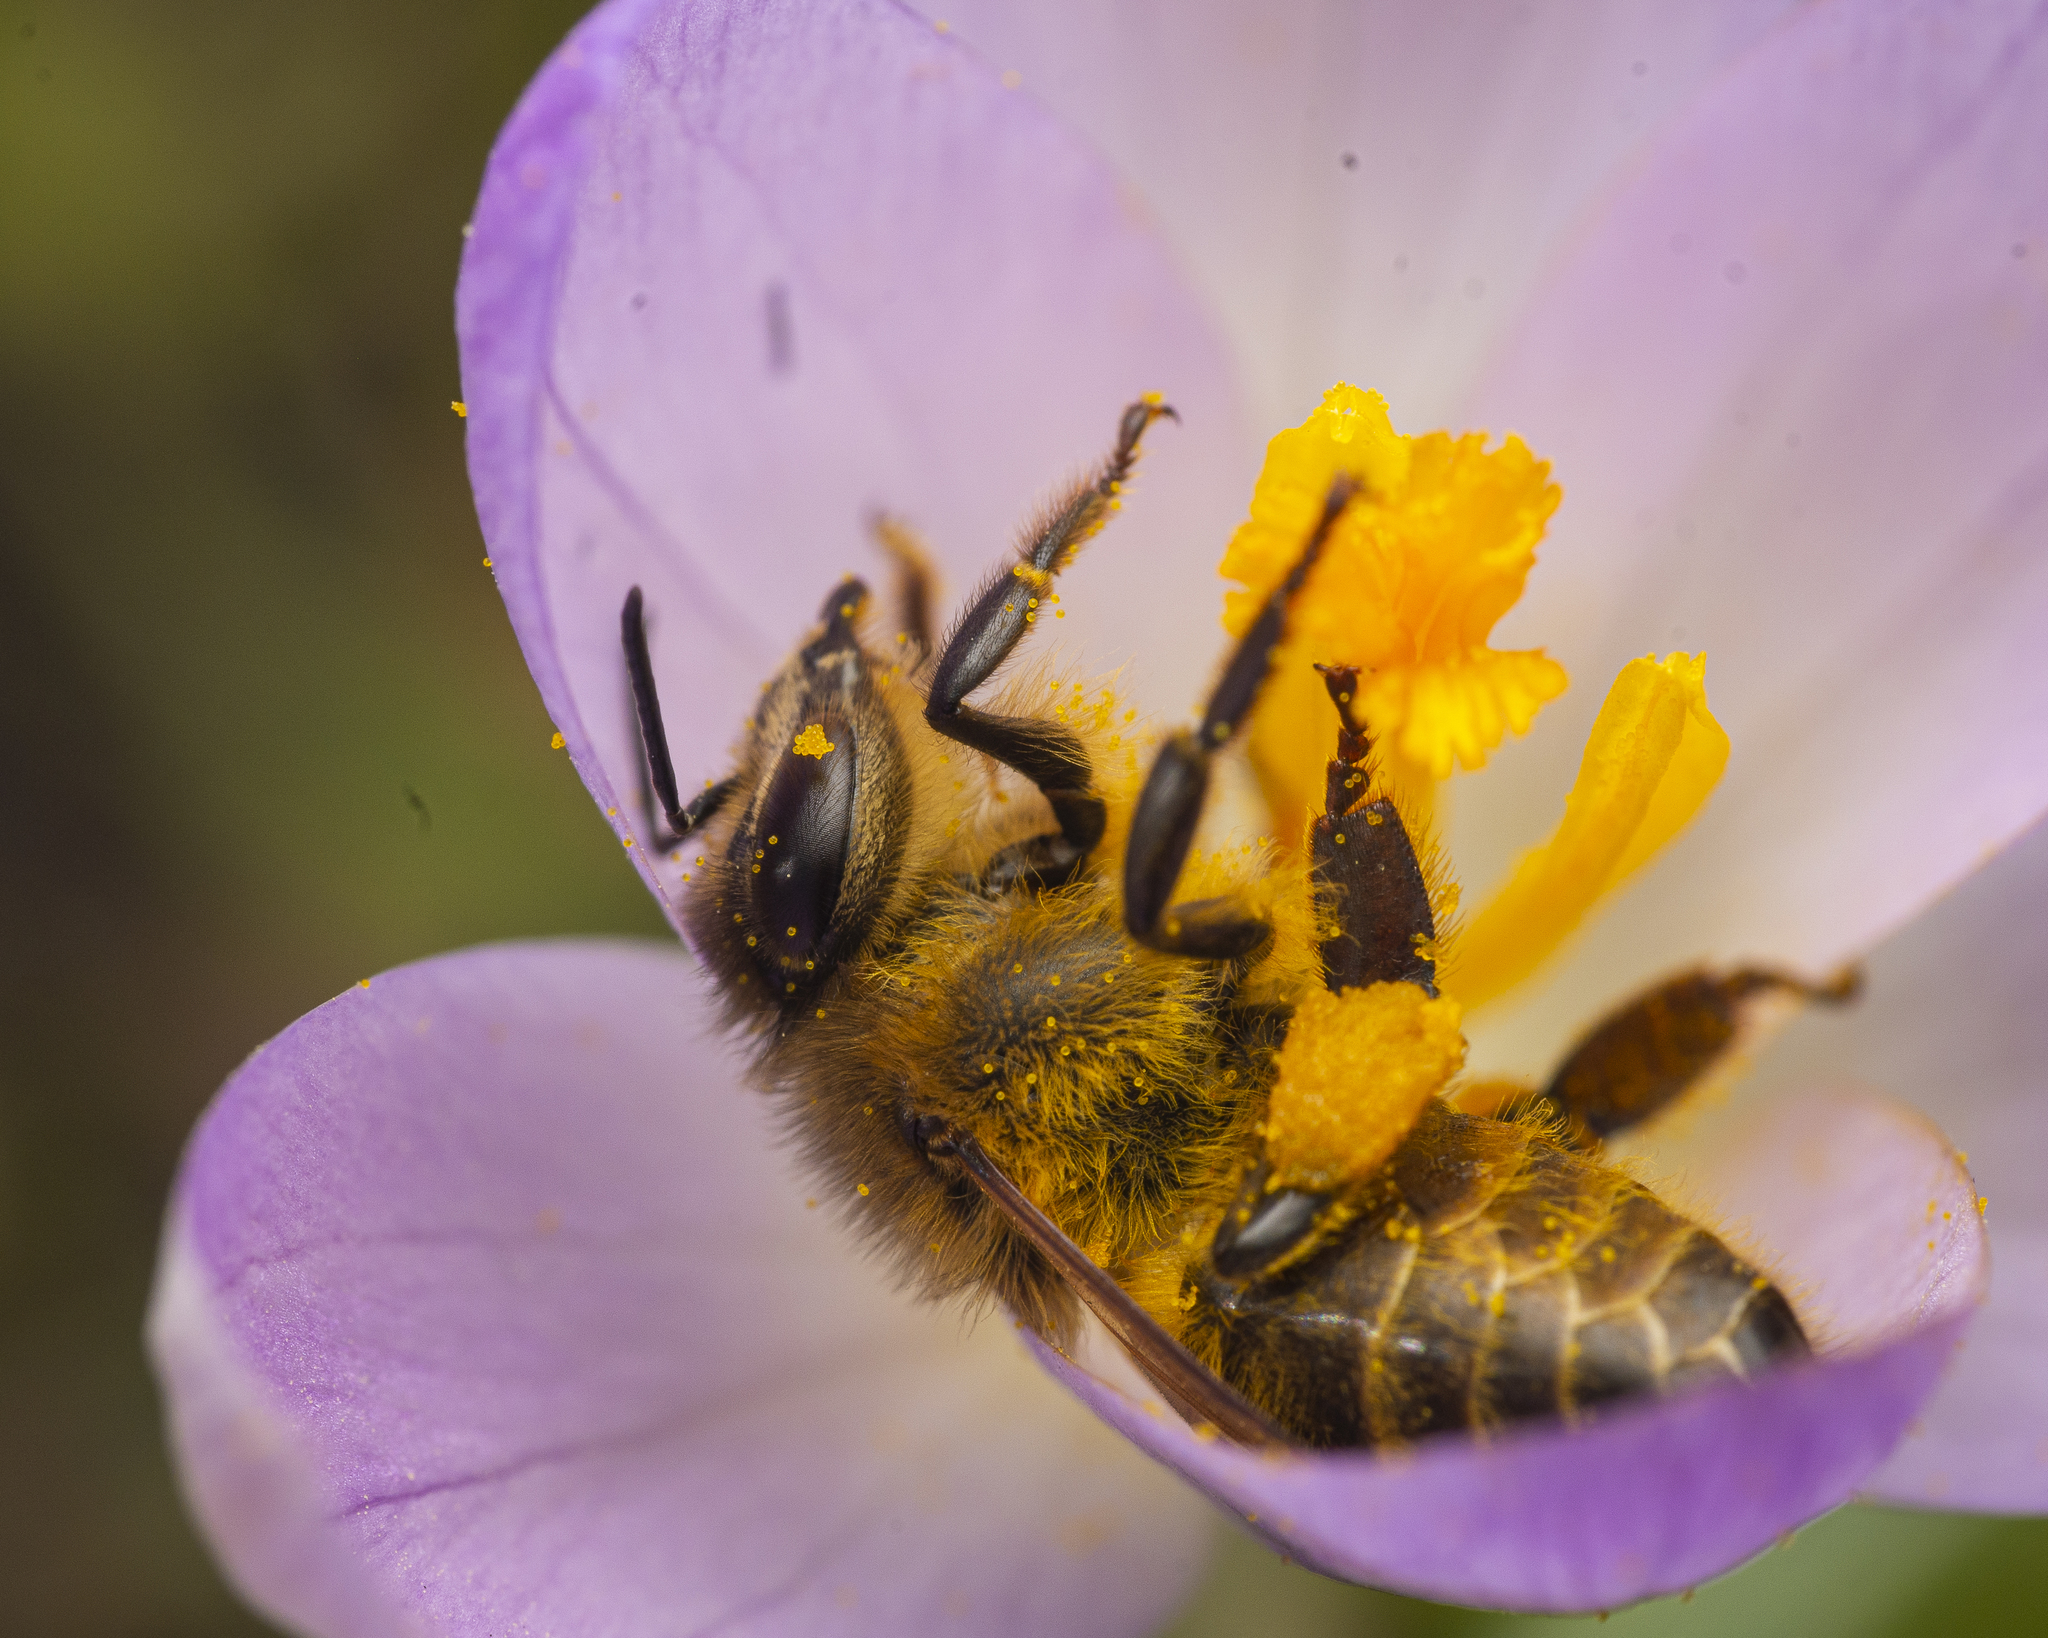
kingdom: Animalia
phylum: Arthropoda
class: Insecta
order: Hymenoptera
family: Apidae
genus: Apis
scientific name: Apis mellifera
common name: Honey bee
